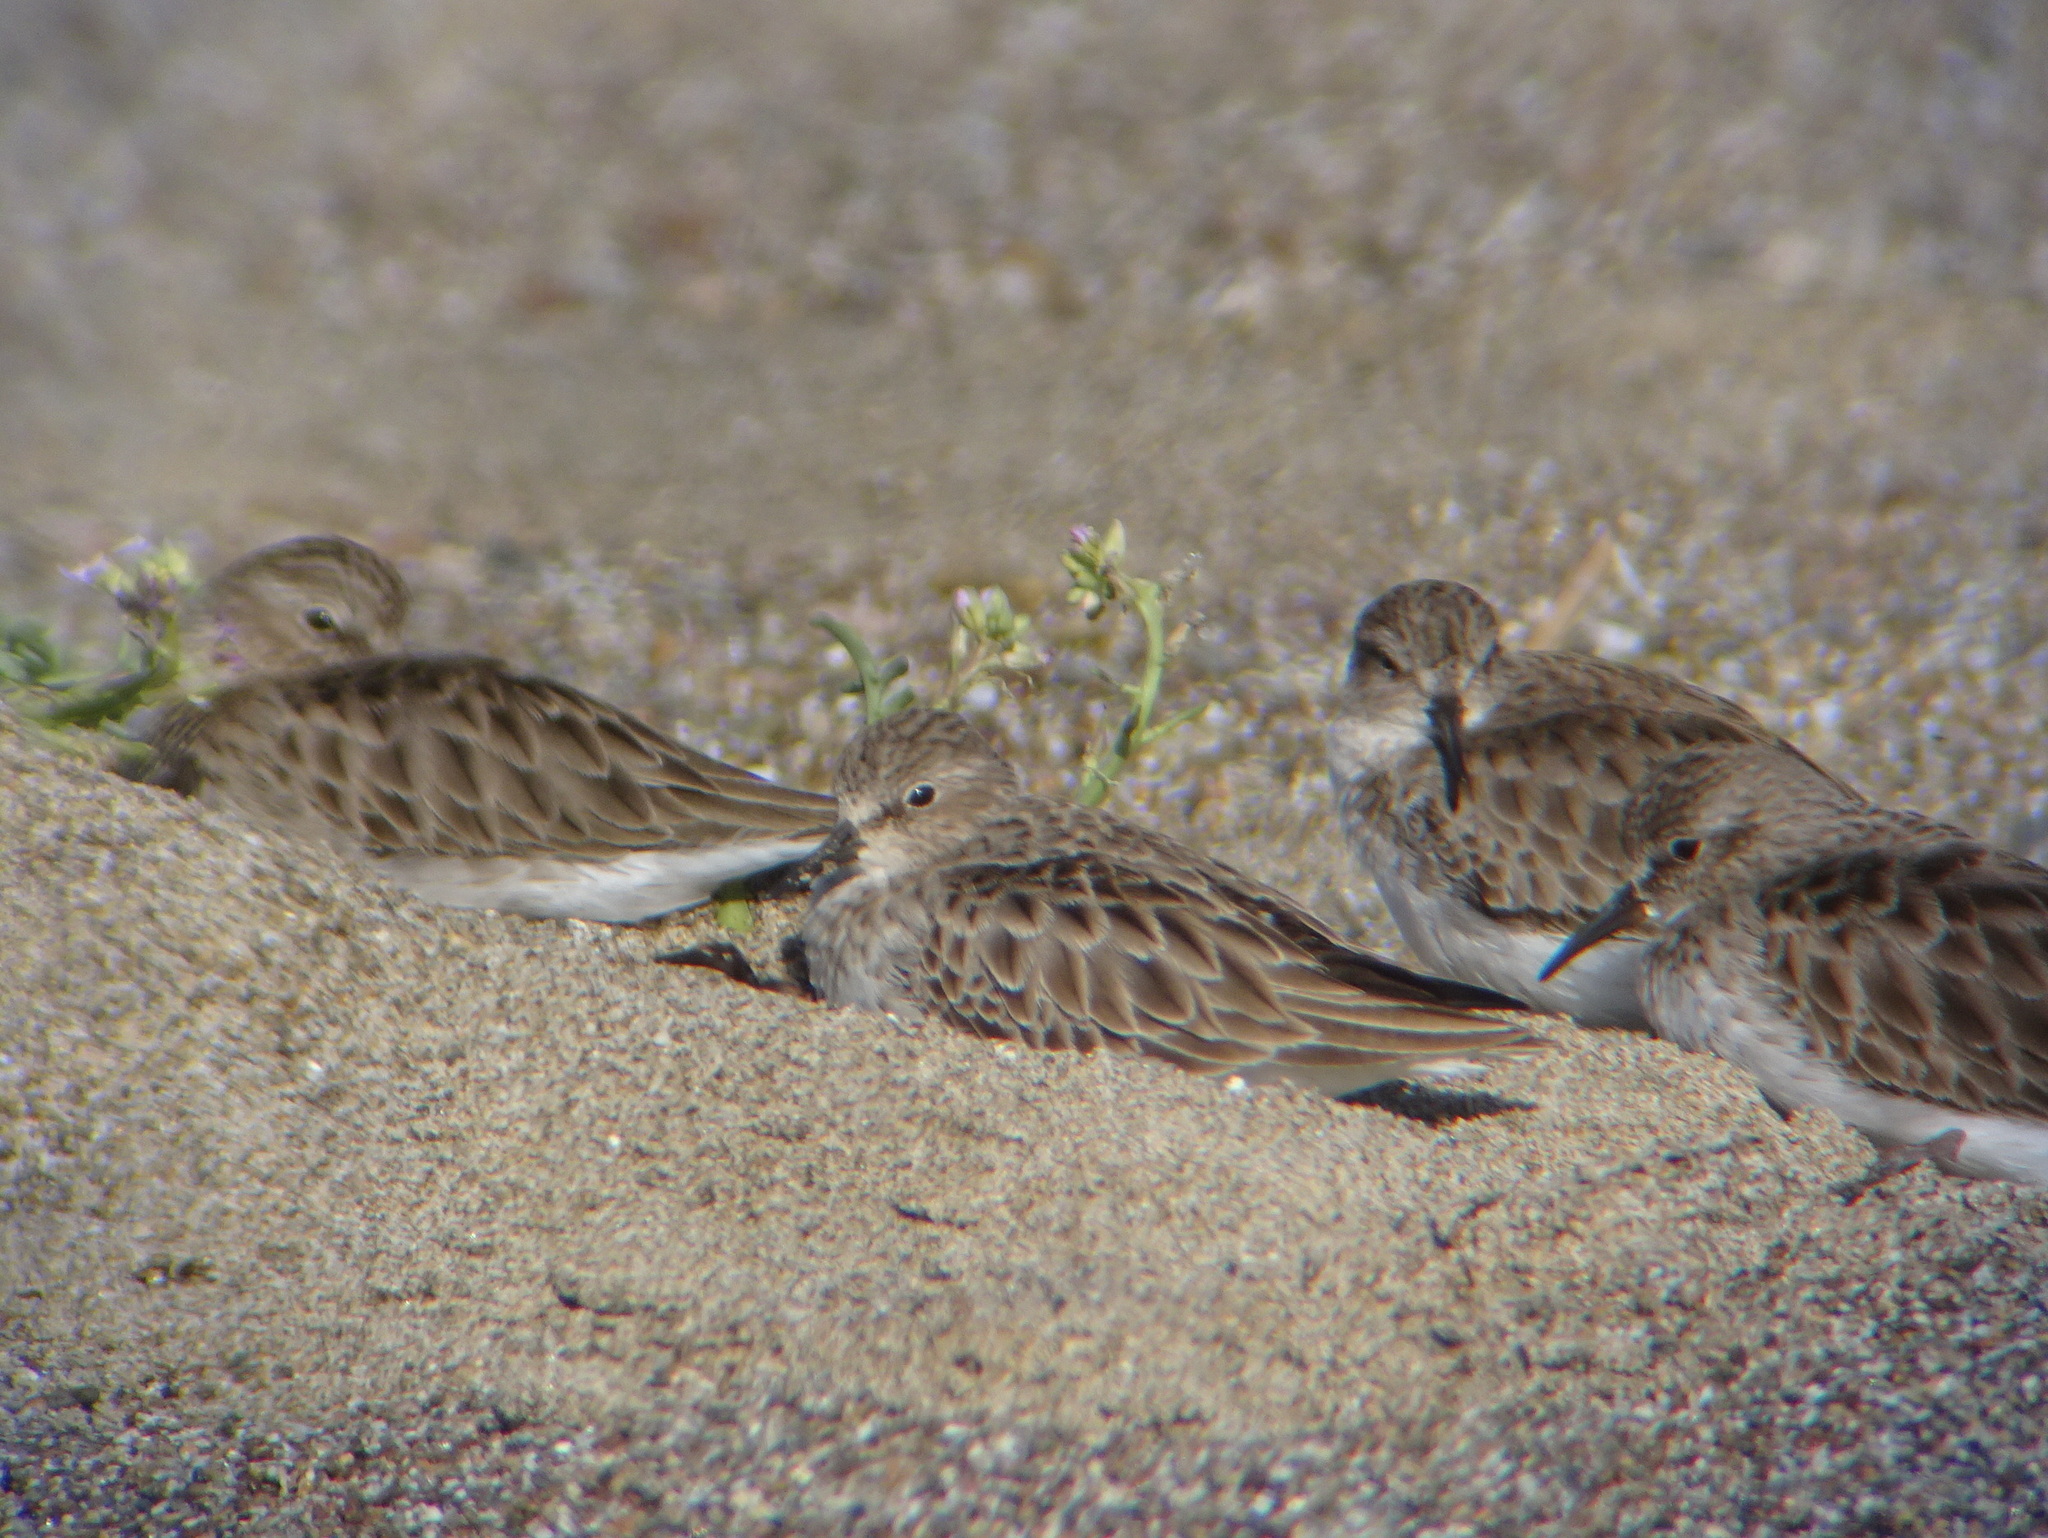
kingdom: Animalia
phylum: Chordata
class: Aves
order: Charadriiformes
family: Scolopacidae
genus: Calidris
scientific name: Calidris minutilla
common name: Least sandpiper
